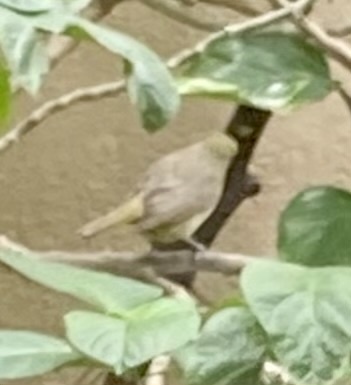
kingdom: Animalia
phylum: Chordata
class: Aves
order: Passeriformes
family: Cardinalidae
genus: Piranga
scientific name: Piranga flava
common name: Red tanager
